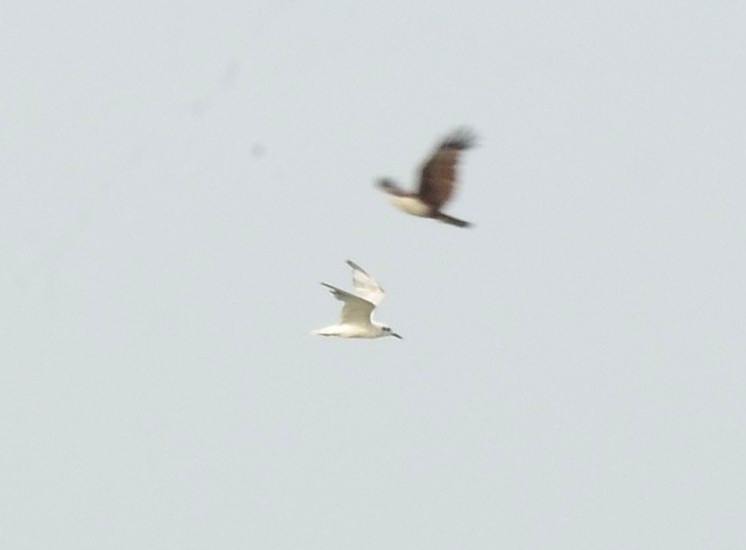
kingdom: Animalia
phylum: Chordata
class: Aves
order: Charadriiformes
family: Laridae
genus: Chlidonias
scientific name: Chlidonias hybrida
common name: Whiskered tern
